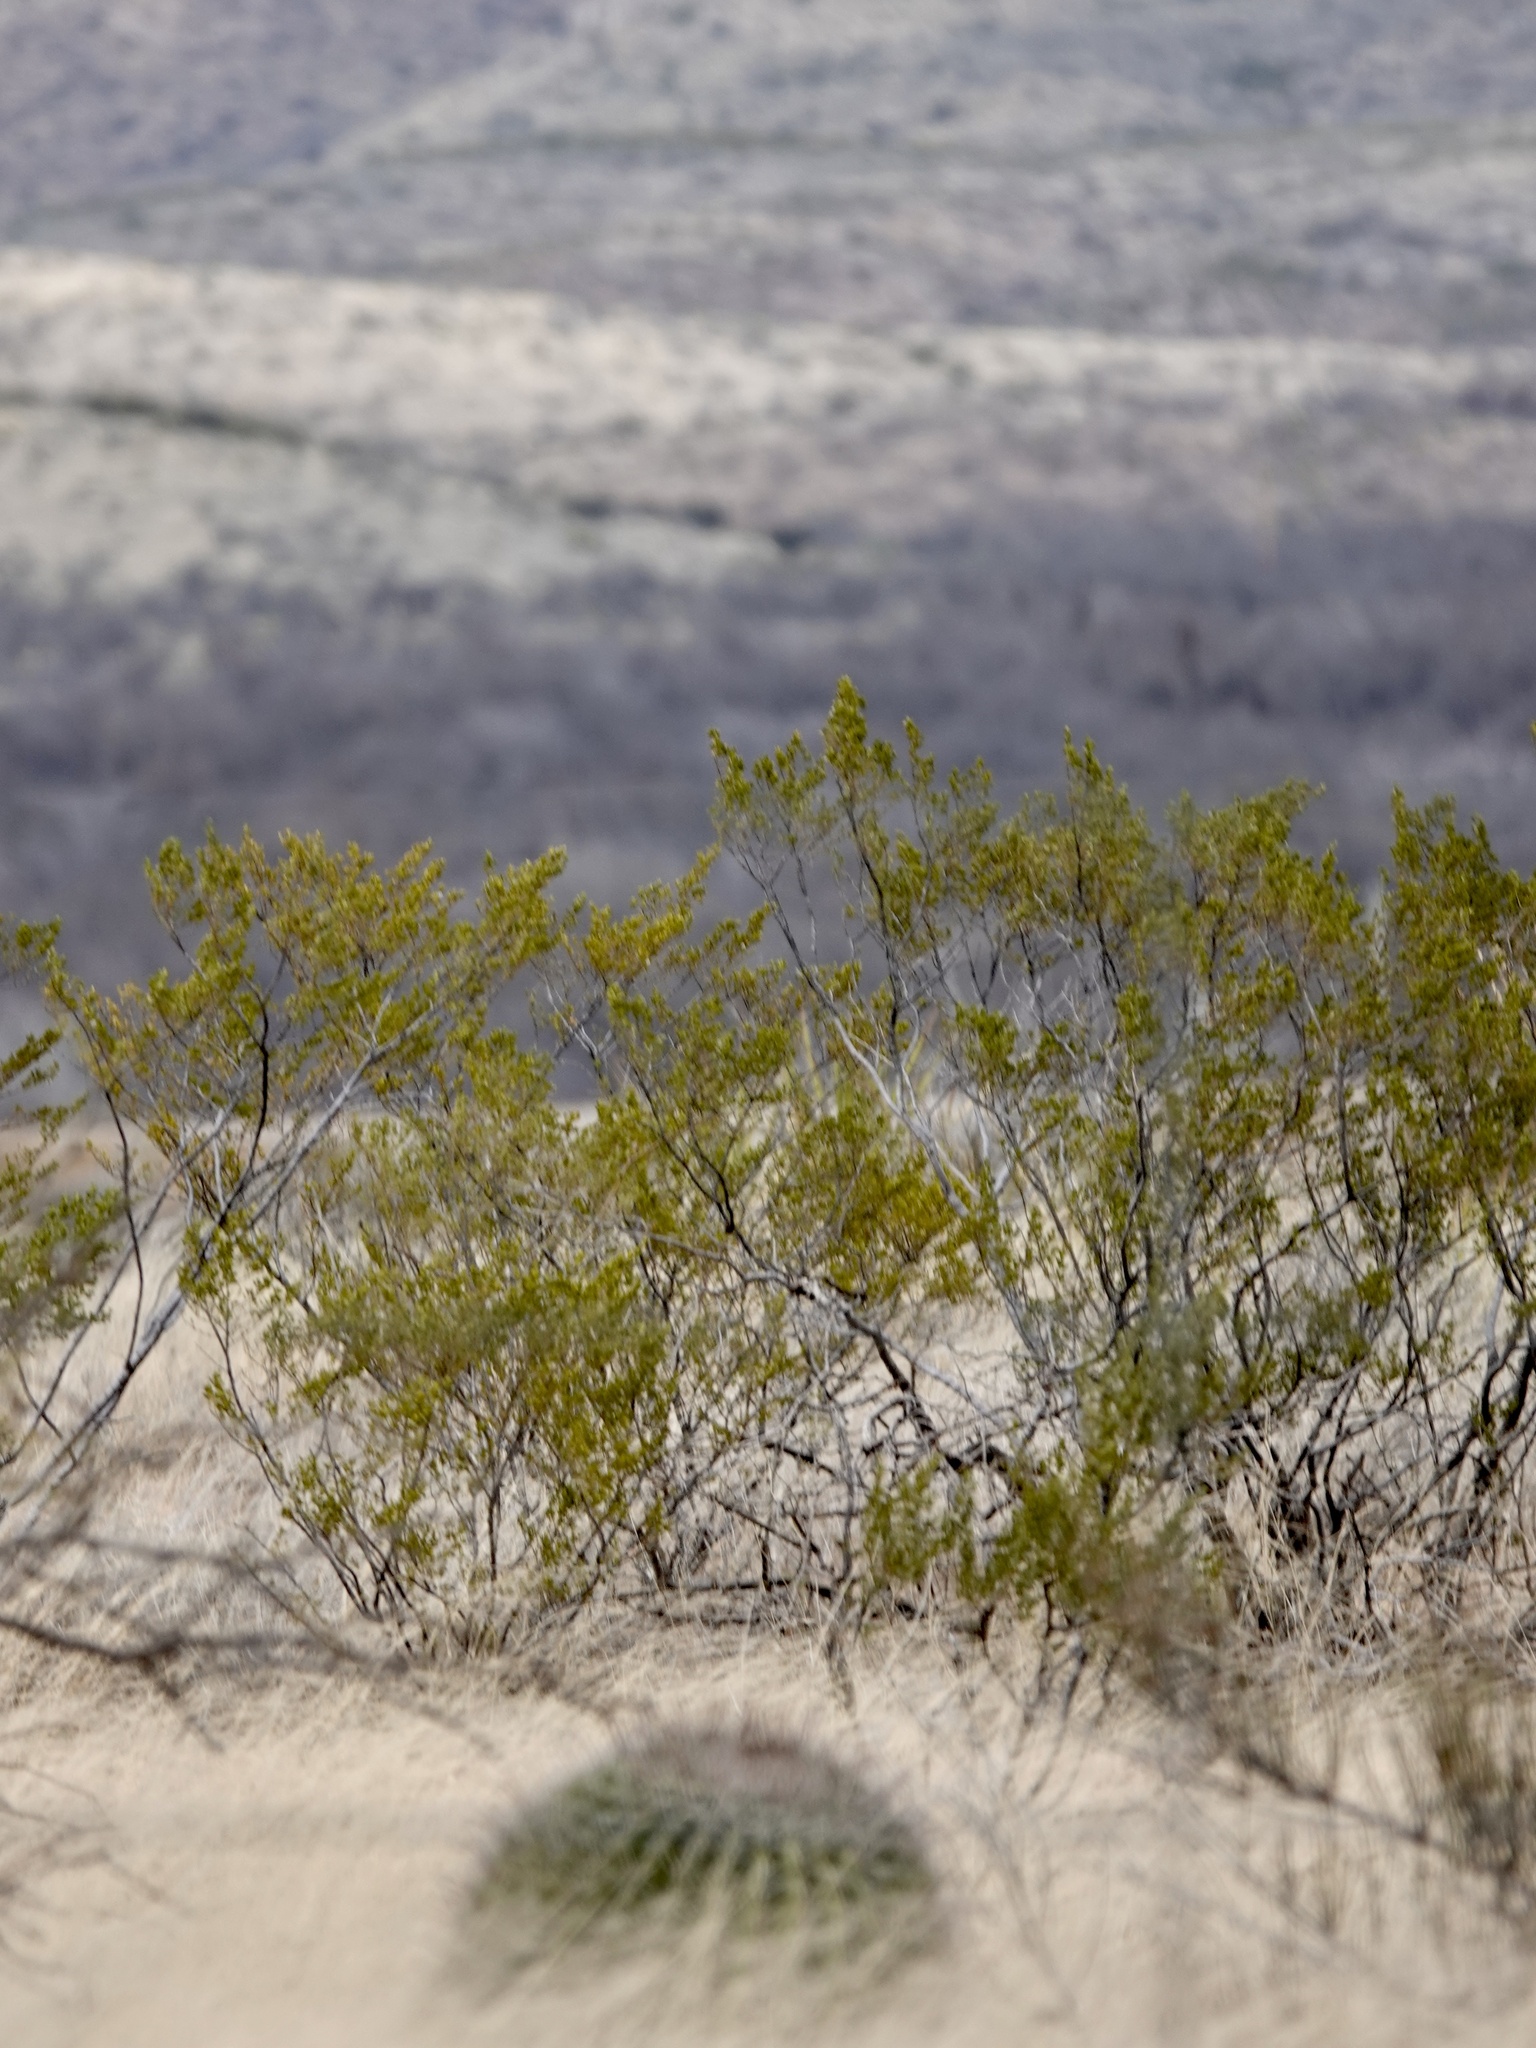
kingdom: Plantae
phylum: Tracheophyta
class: Magnoliopsida
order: Zygophyllales
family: Zygophyllaceae
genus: Larrea
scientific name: Larrea tridentata
